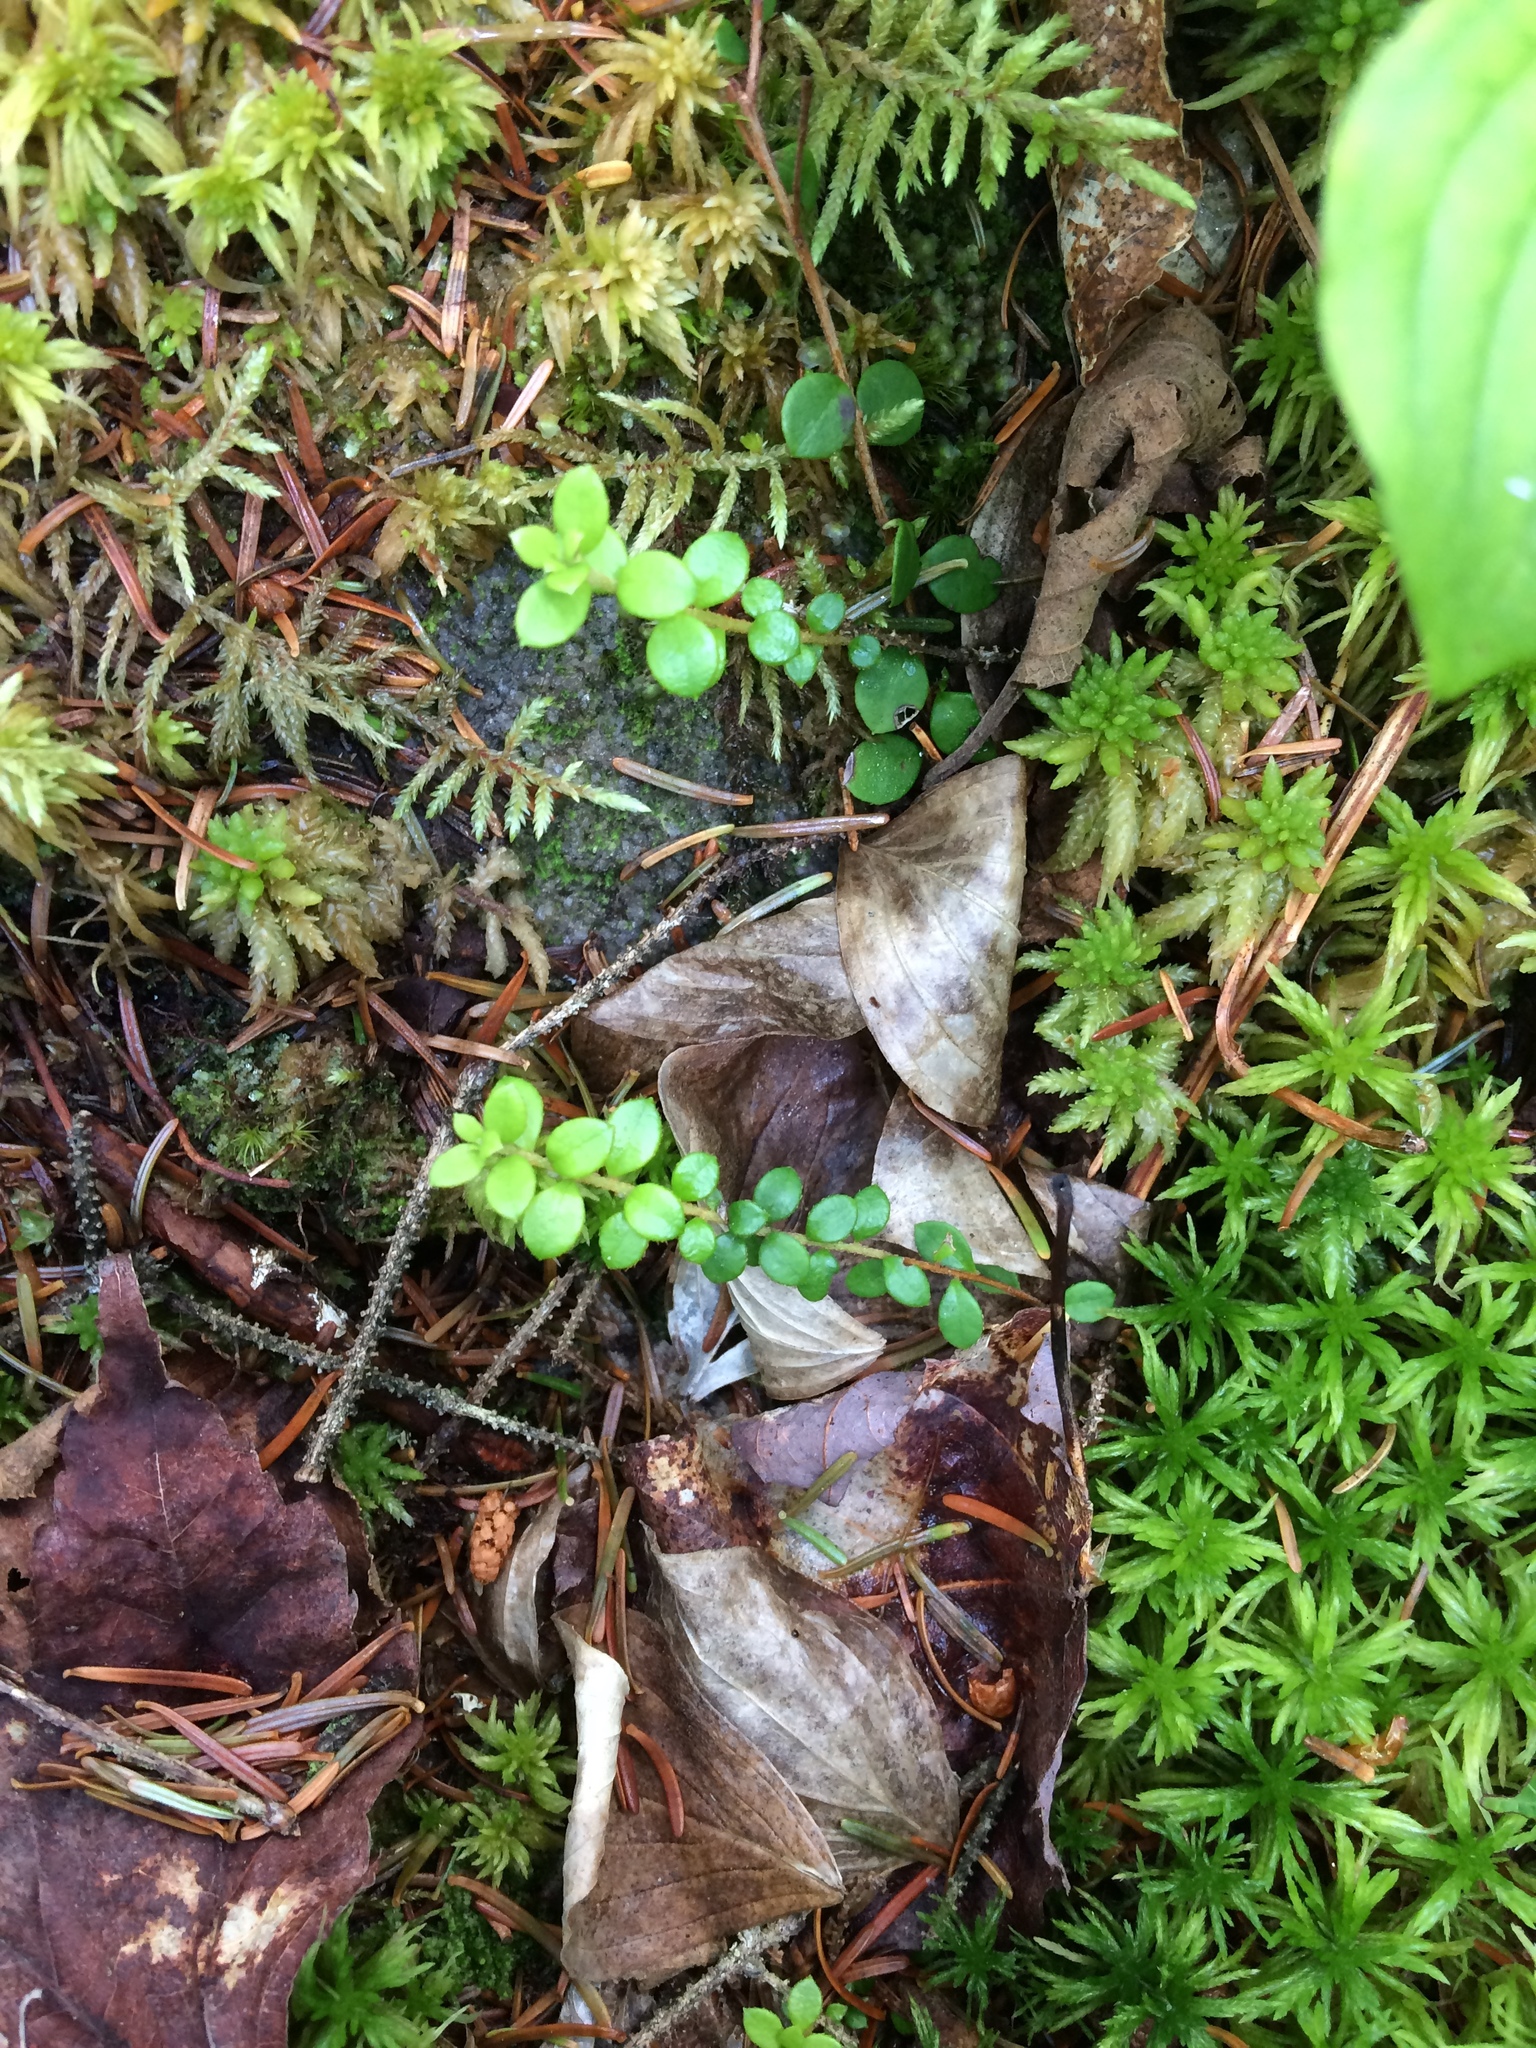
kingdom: Plantae
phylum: Tracheophyta
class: Magnoliopsida
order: Ericales
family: Ericaceae
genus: Gaultheria
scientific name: Gaultheria hispidula
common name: Cancer wintergreen
